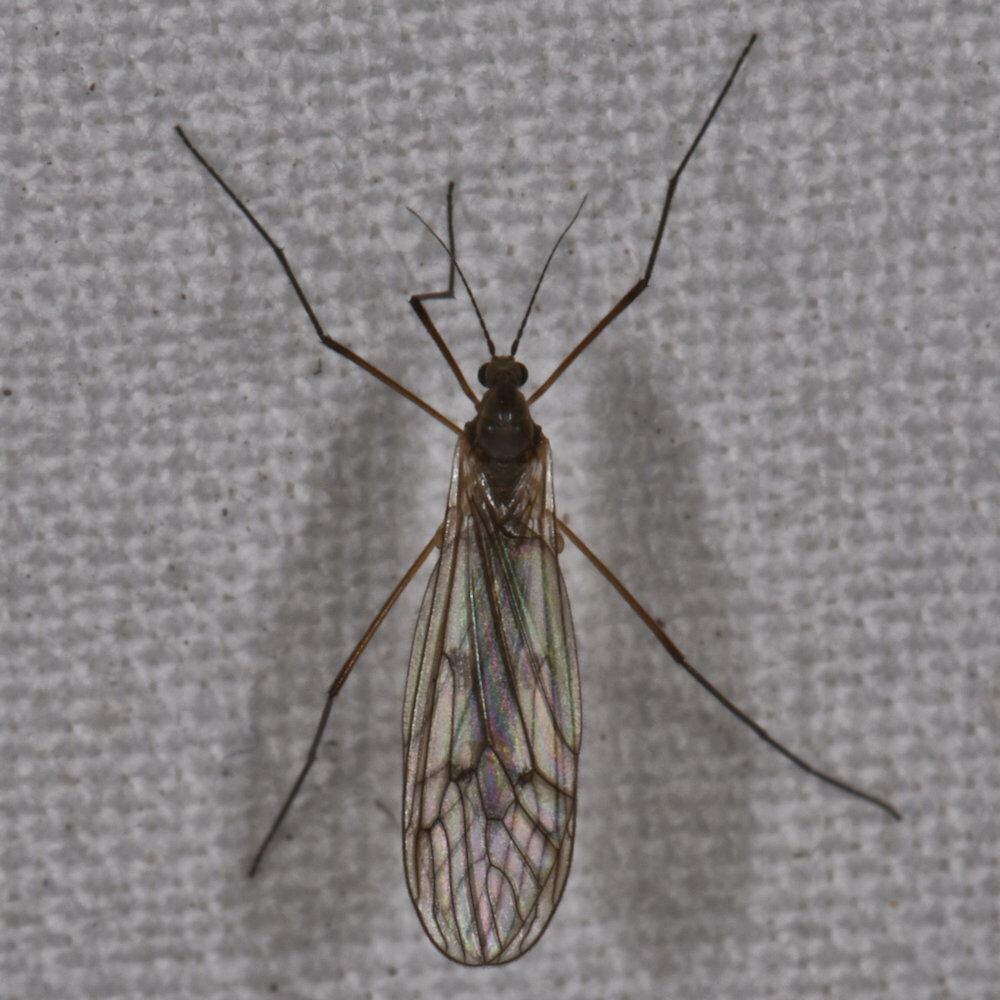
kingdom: Animalia
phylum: Arthropoda
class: Insecta
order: Diptera
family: Trichoceridae
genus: Trichocera
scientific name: Trichocera bimacula
